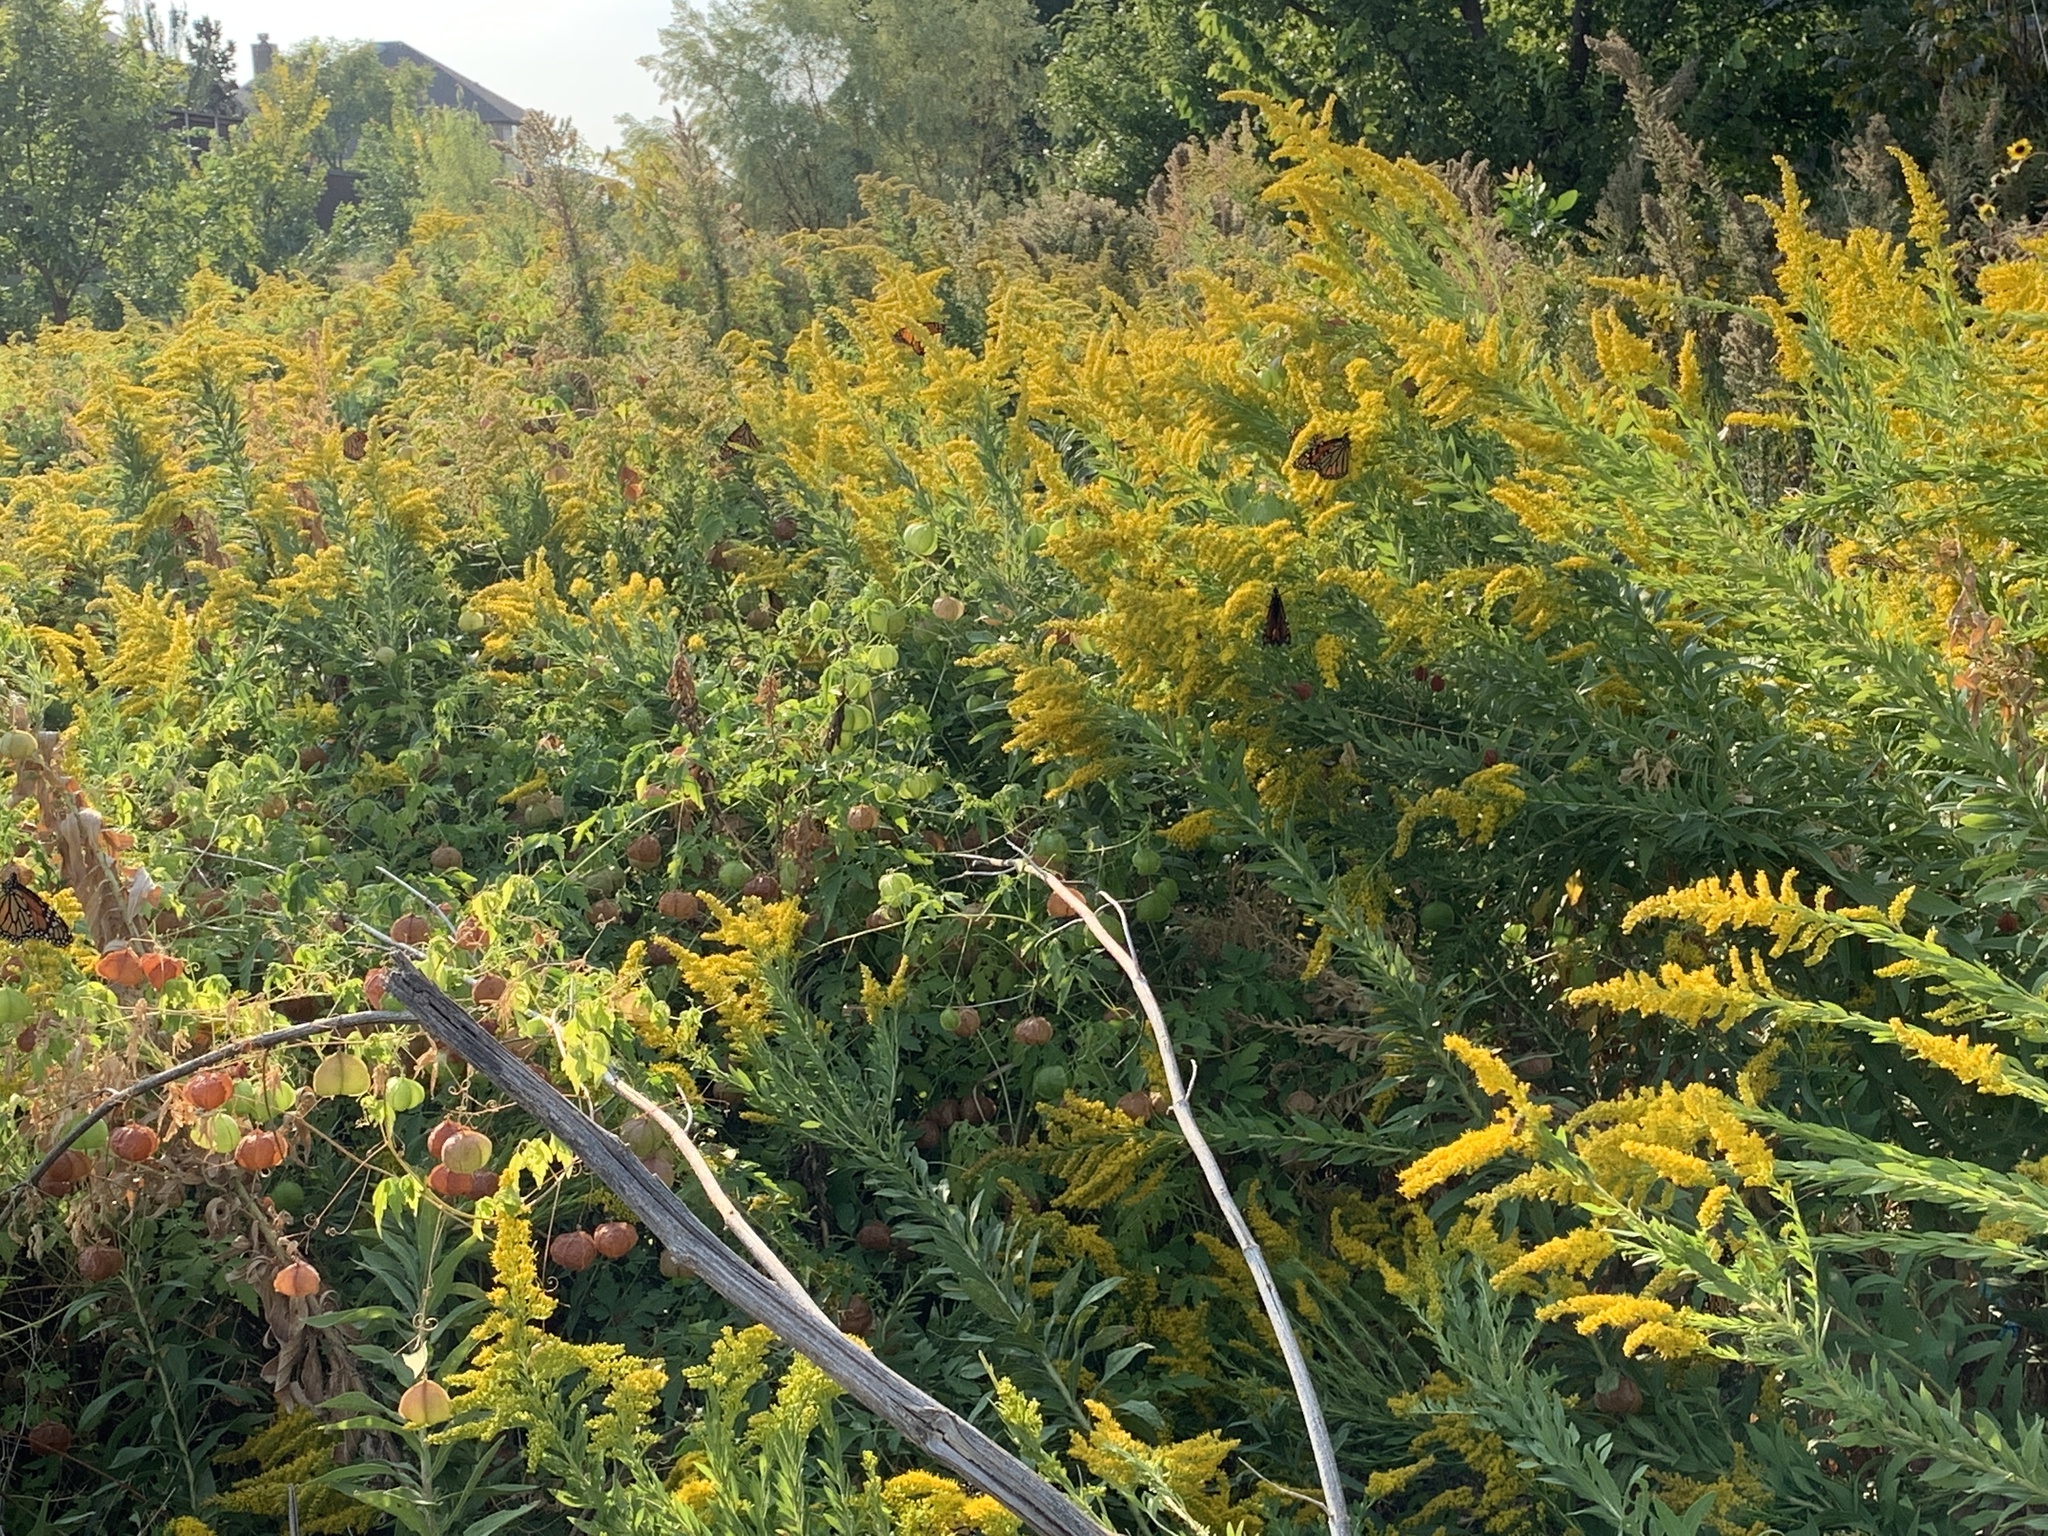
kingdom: Animalia
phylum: Arthropoda
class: Insecta
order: Lepidoptera
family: Nymphalidae
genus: Danaus
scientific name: Danaus plexippus
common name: Monarch
